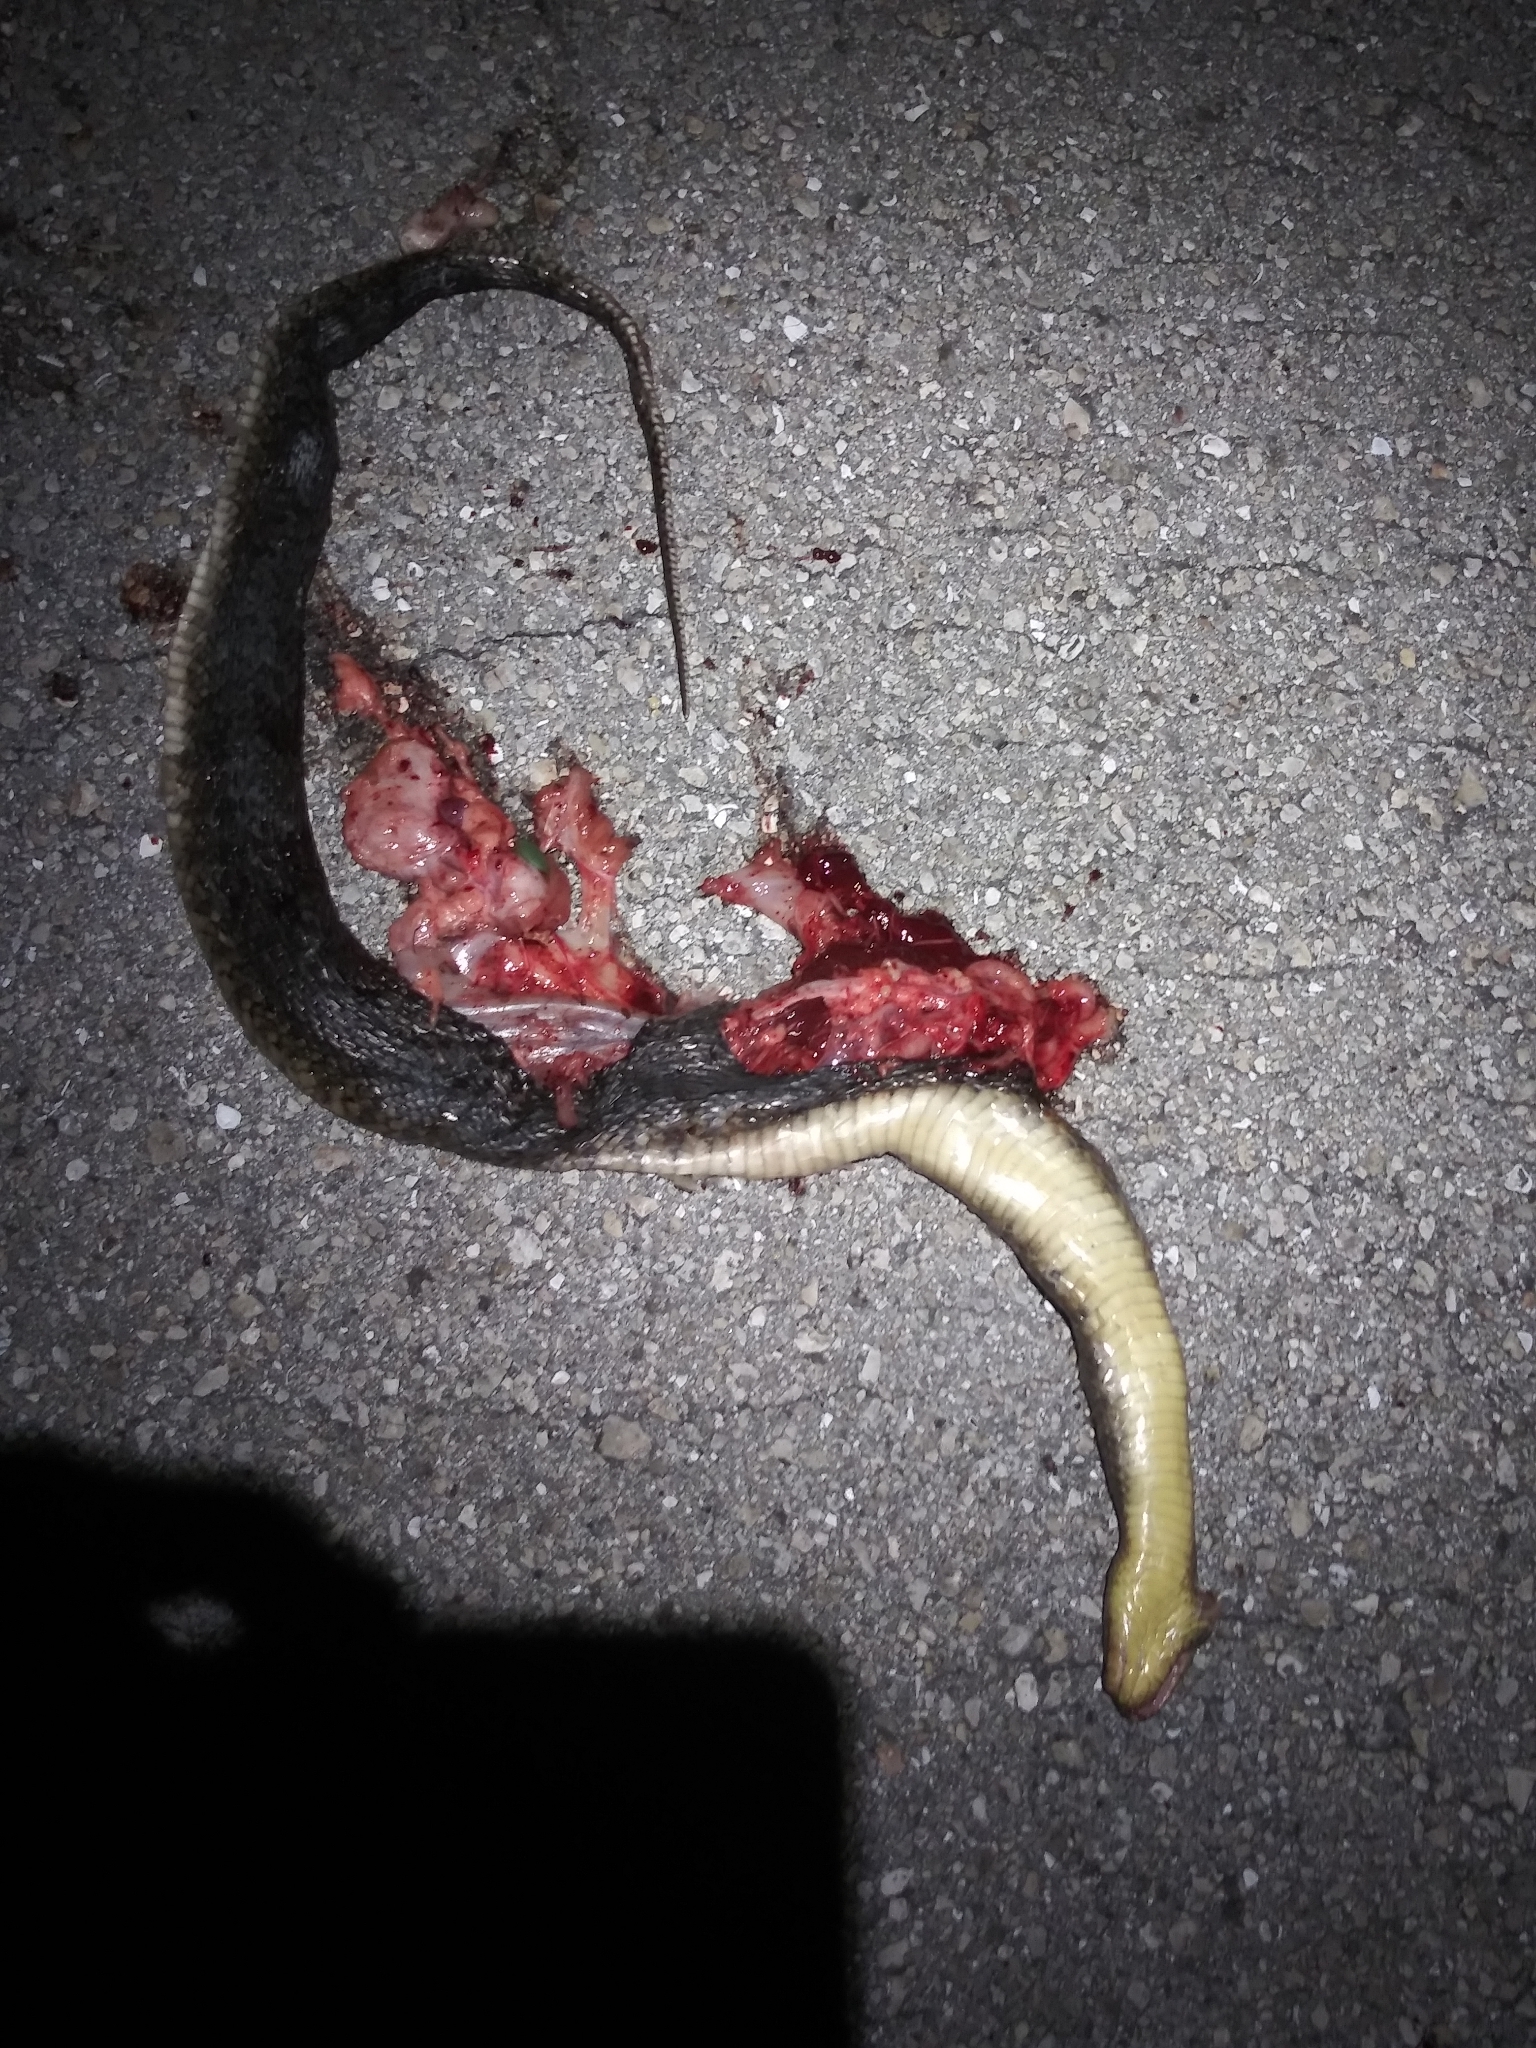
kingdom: Animalia
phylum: Chordata
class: Squamata
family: Colubridae
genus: Nerodia
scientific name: Nerodia floridana
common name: Florida green watersnake
